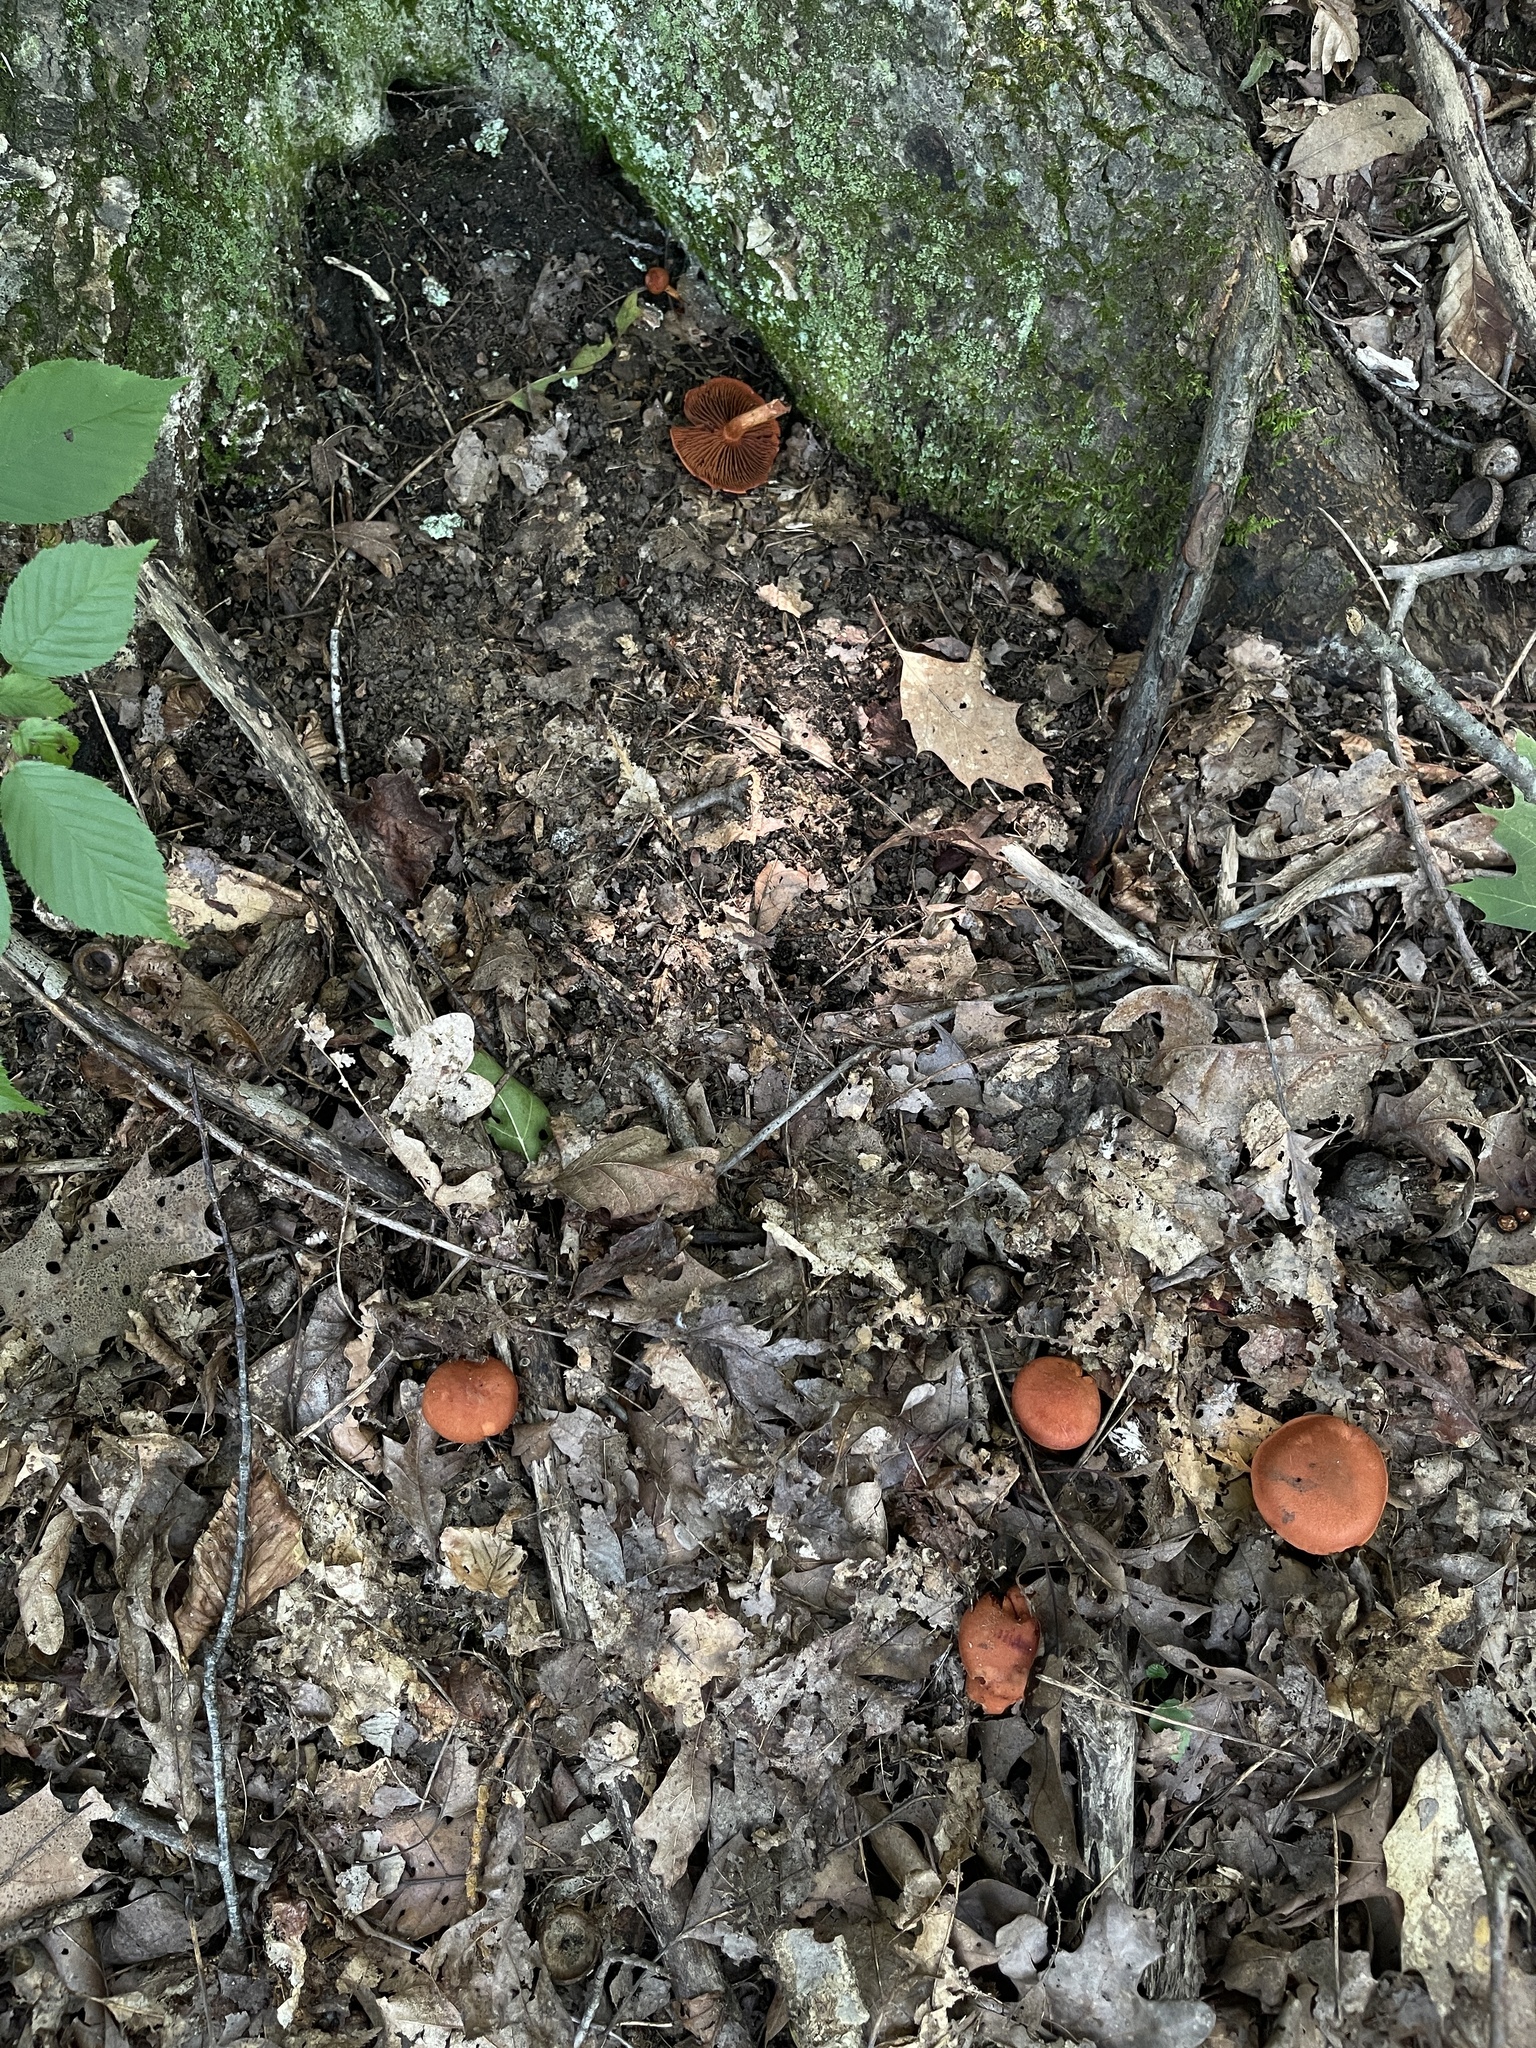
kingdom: Fungi
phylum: Basidiomycota
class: Agaricomycetes
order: Agaricales
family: Cortinariaceae
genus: Cortinarius
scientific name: Cortinarius marylandensis
